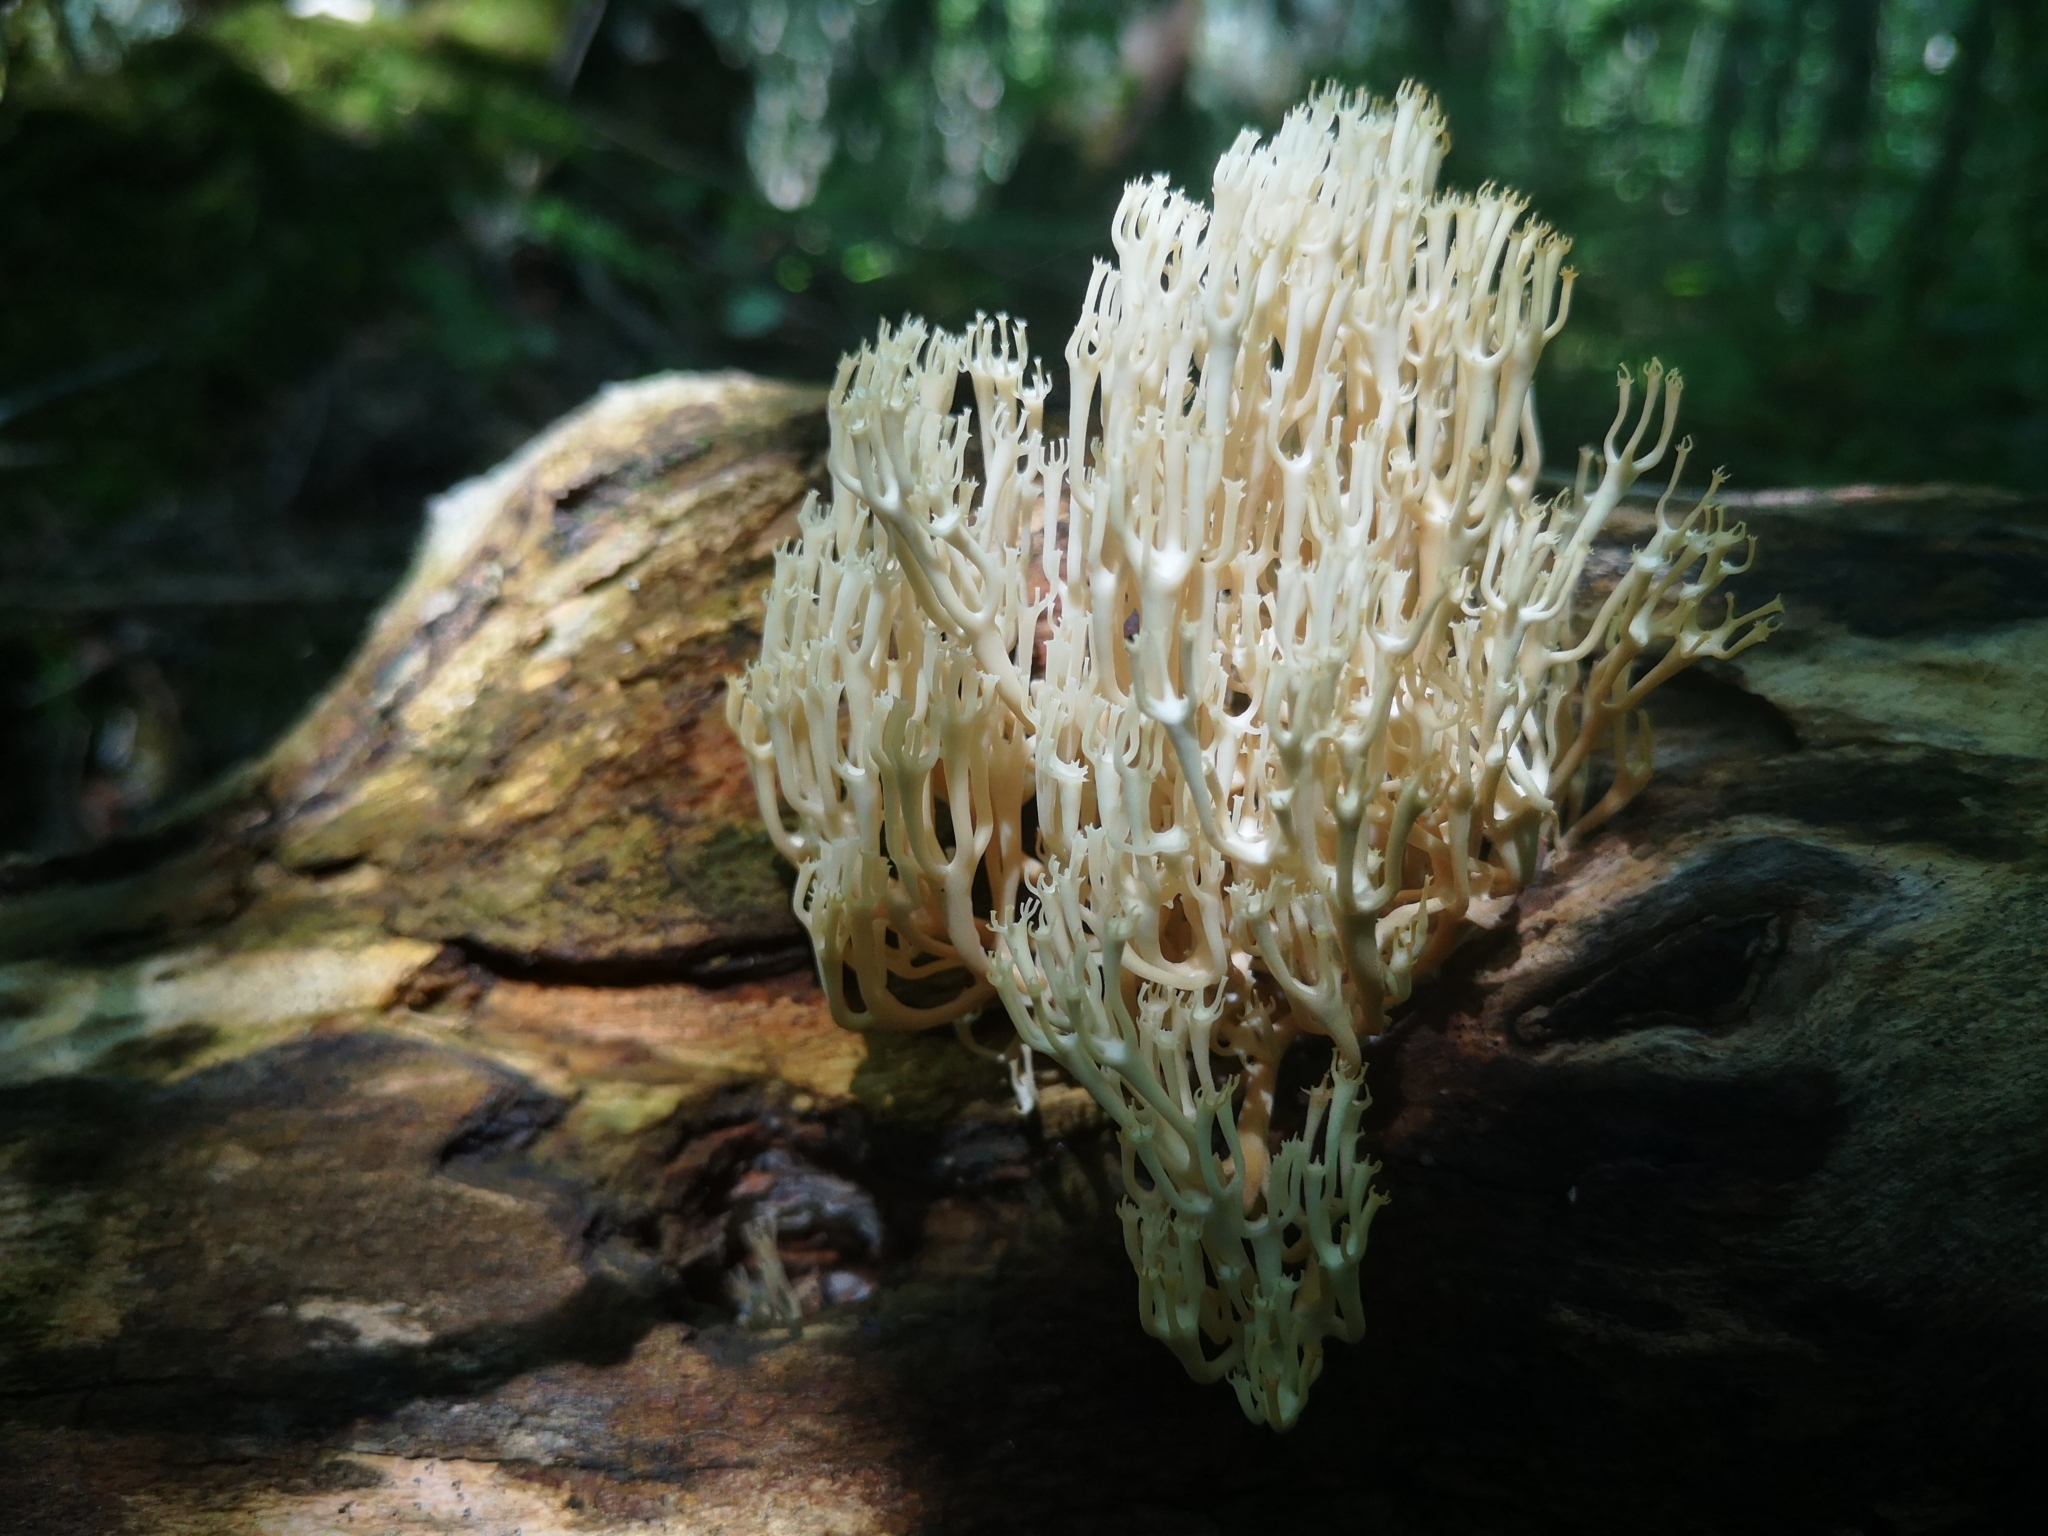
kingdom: Fungi
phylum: Basidiomycota
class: Agaricomycetes
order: Russulales
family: Auriscalpiaceae
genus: Artomyces
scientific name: Artomyces pyxidatus
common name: Crown-tipped coral fungus
